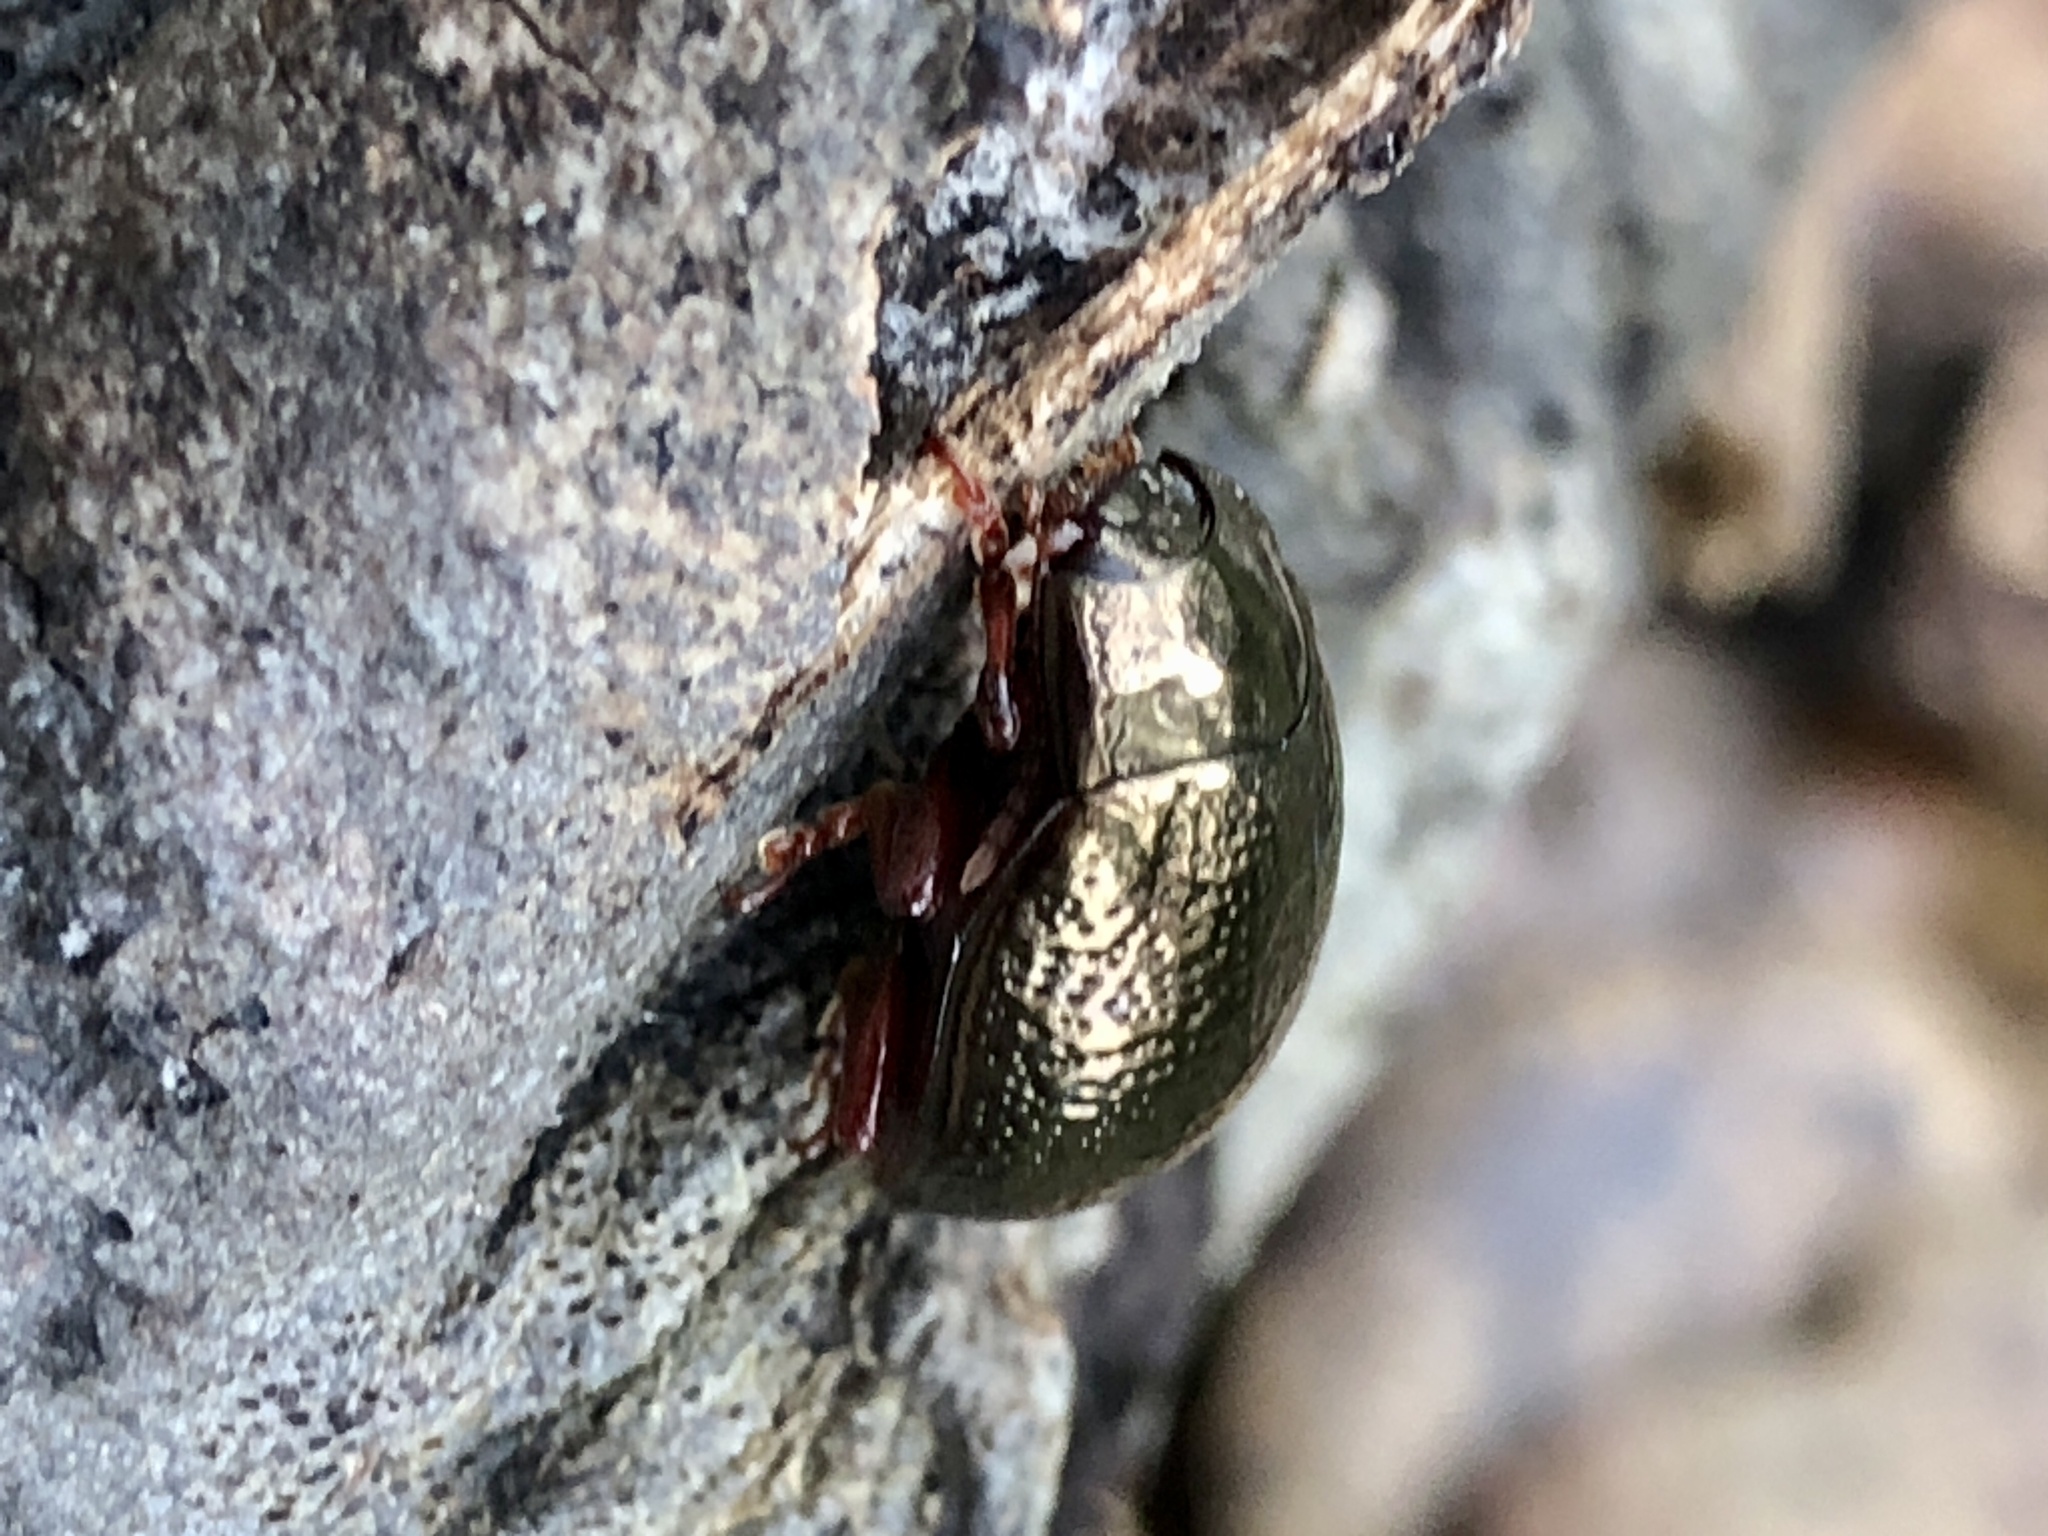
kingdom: Animalia
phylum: Arthropoda
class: Insecta
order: Coleoptera
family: Chrysomelidae
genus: Chrysolina
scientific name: Chrysolina bankii
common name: Leaf beetle
